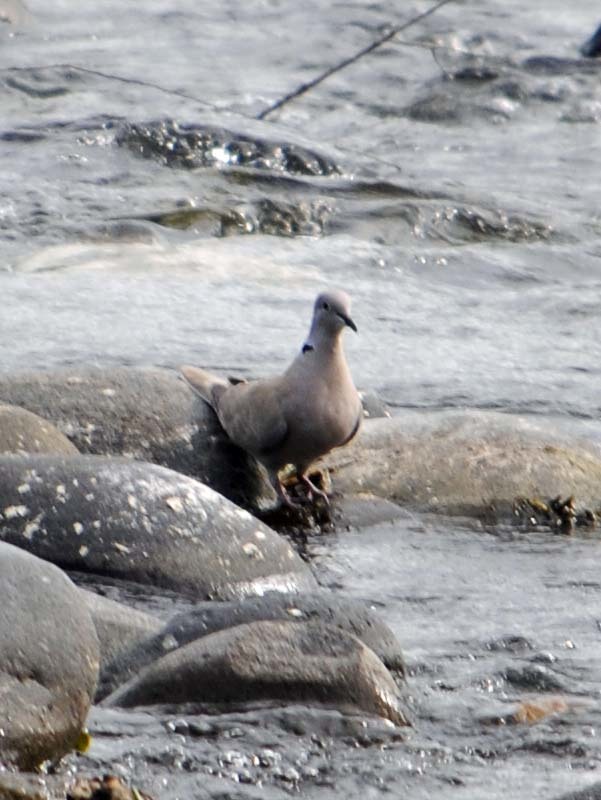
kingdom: Animalia
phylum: Chordata
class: Aves
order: Columbiformes
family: Columbidae
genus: Streptopelia
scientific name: Streptopelia decaocto
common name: Eurasian collared dove
